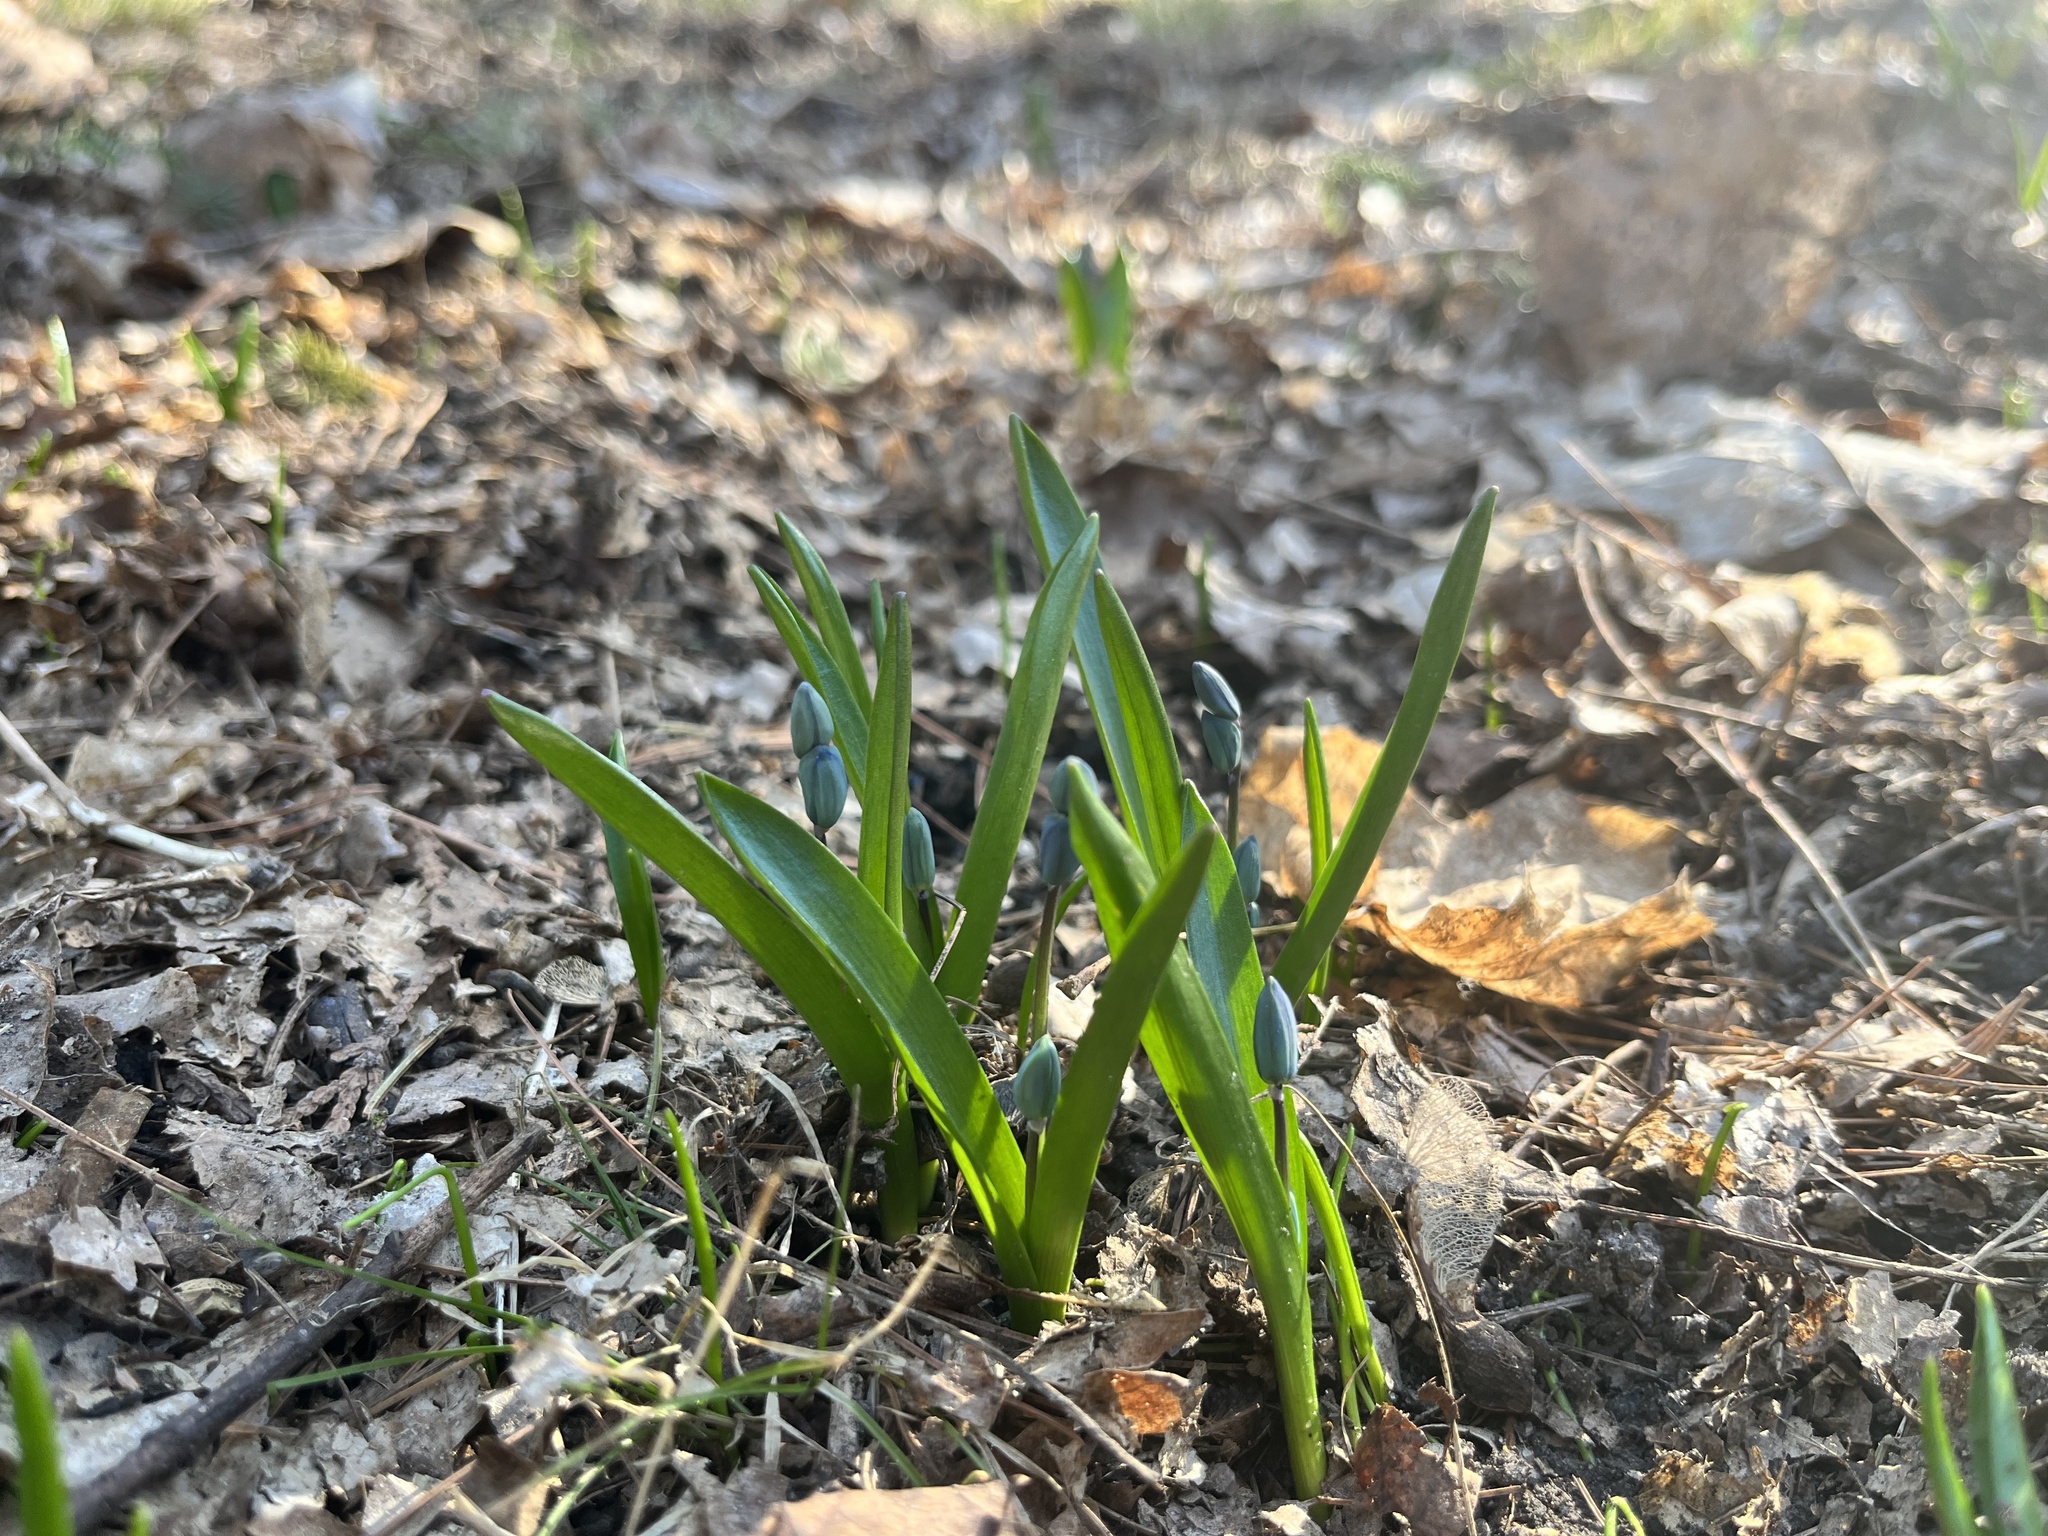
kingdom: Plantae
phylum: Tracheophyta
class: Liliopsida
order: Asparagales
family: Asparagaceae
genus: Scilla
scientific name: Scilla siberica
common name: Siberian squill
